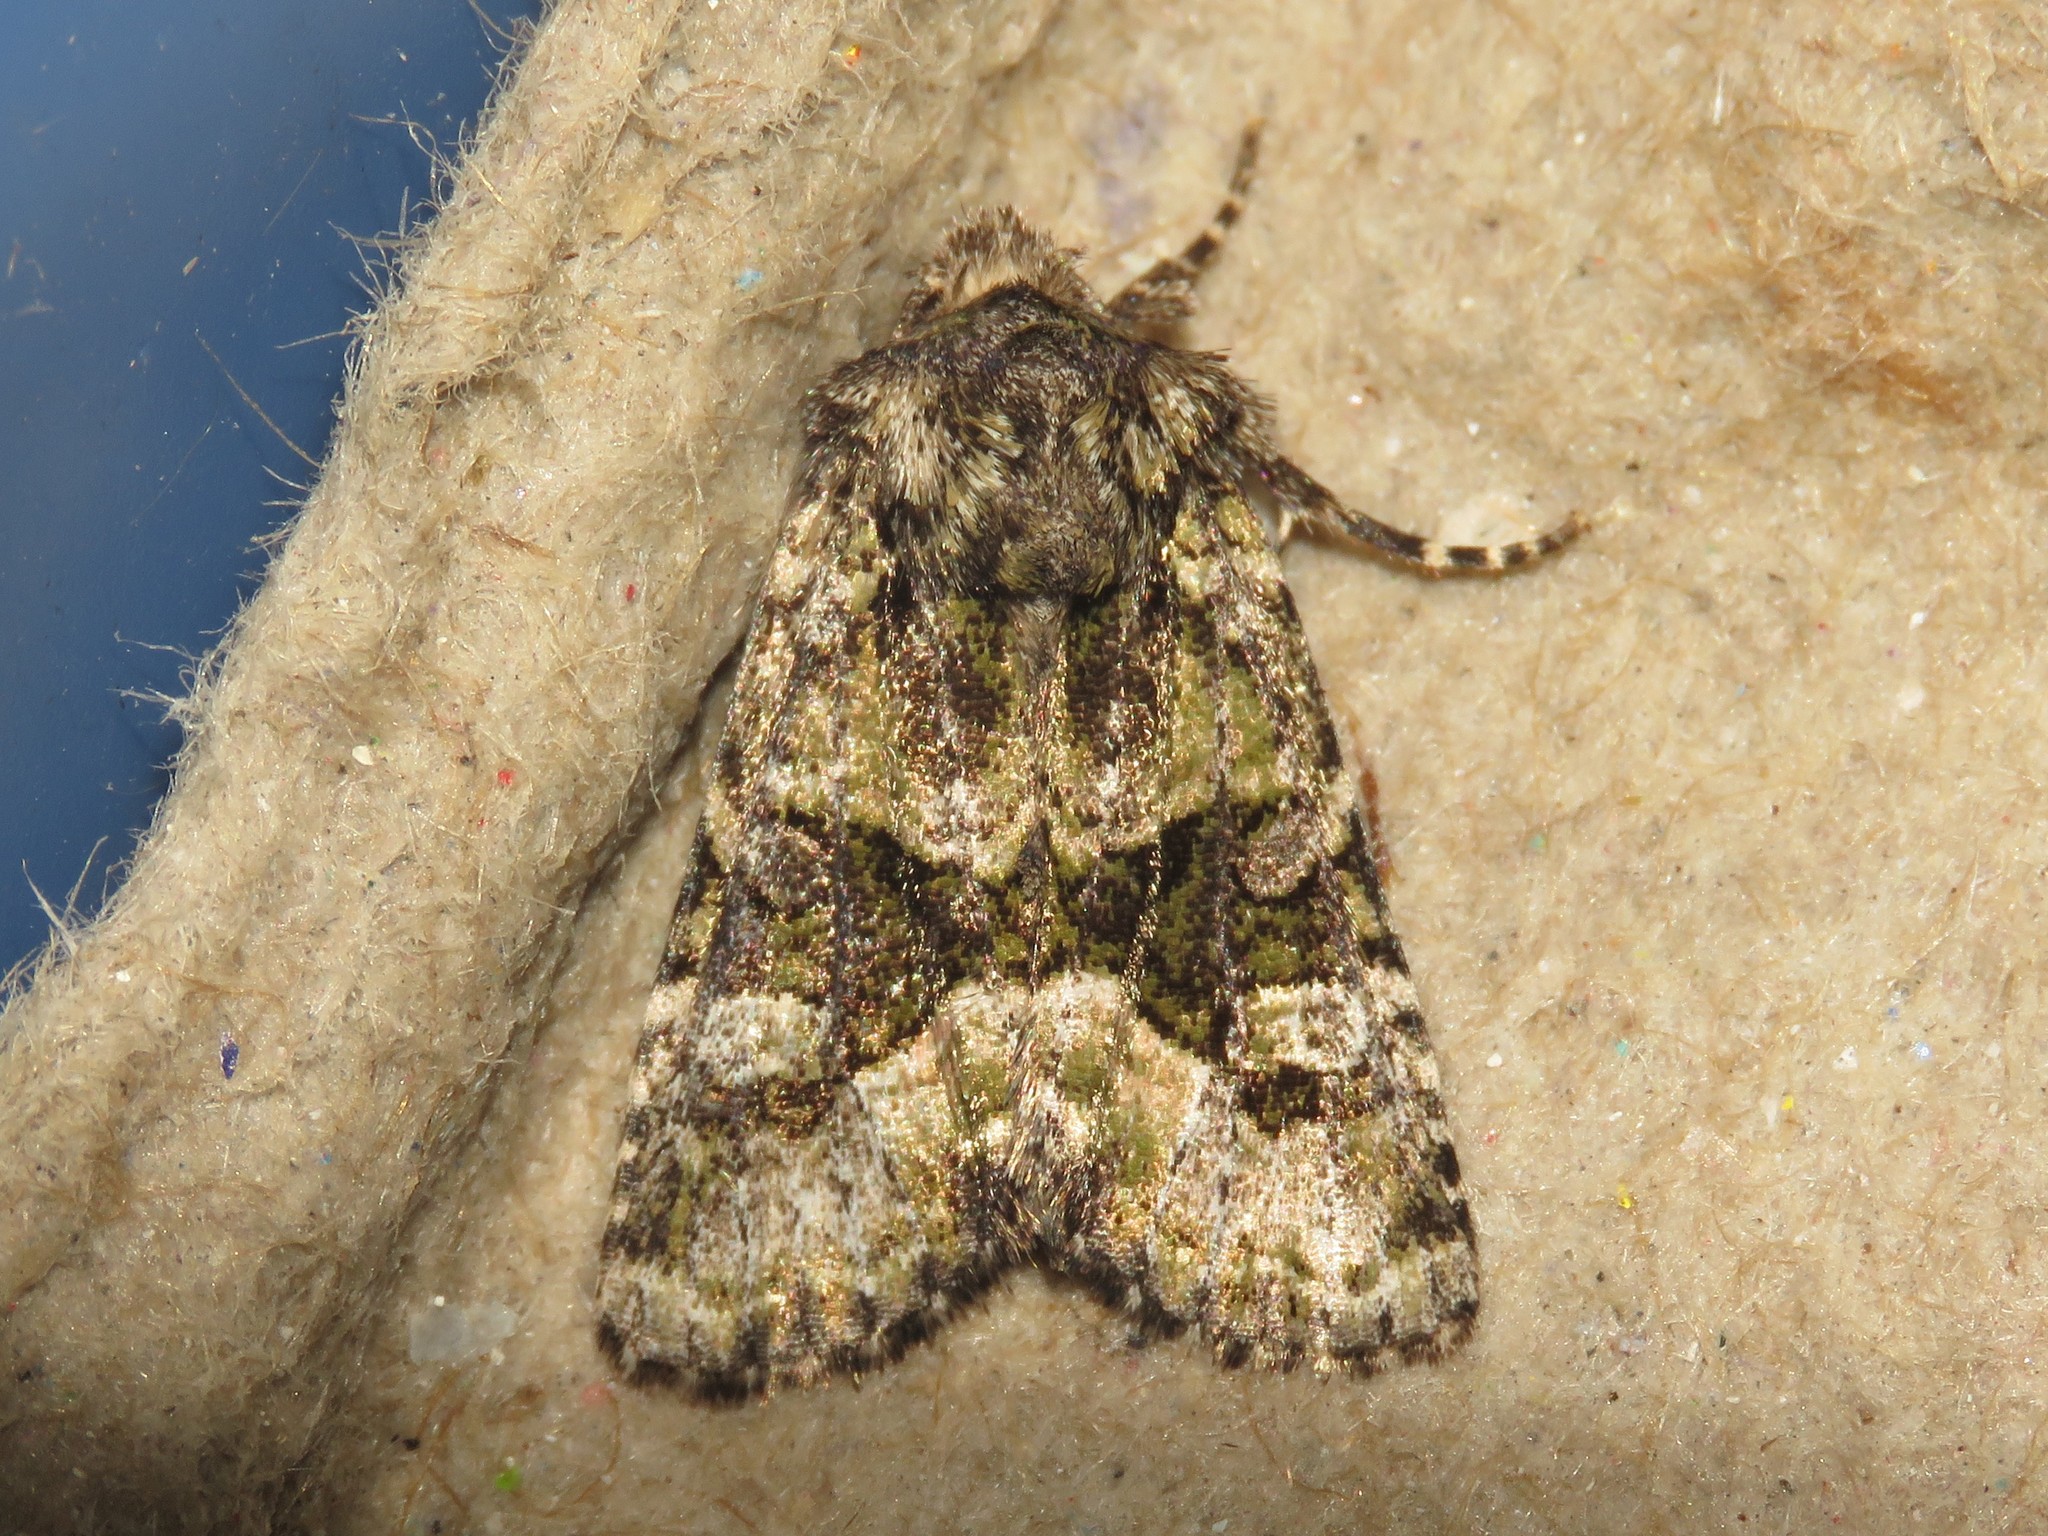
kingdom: Animalia
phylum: Arthropoda
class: Insecta
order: Lepidoptera
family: Noctuidae
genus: Lacinipolia
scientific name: Lacinipolia olivacea
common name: Olive arches moth
